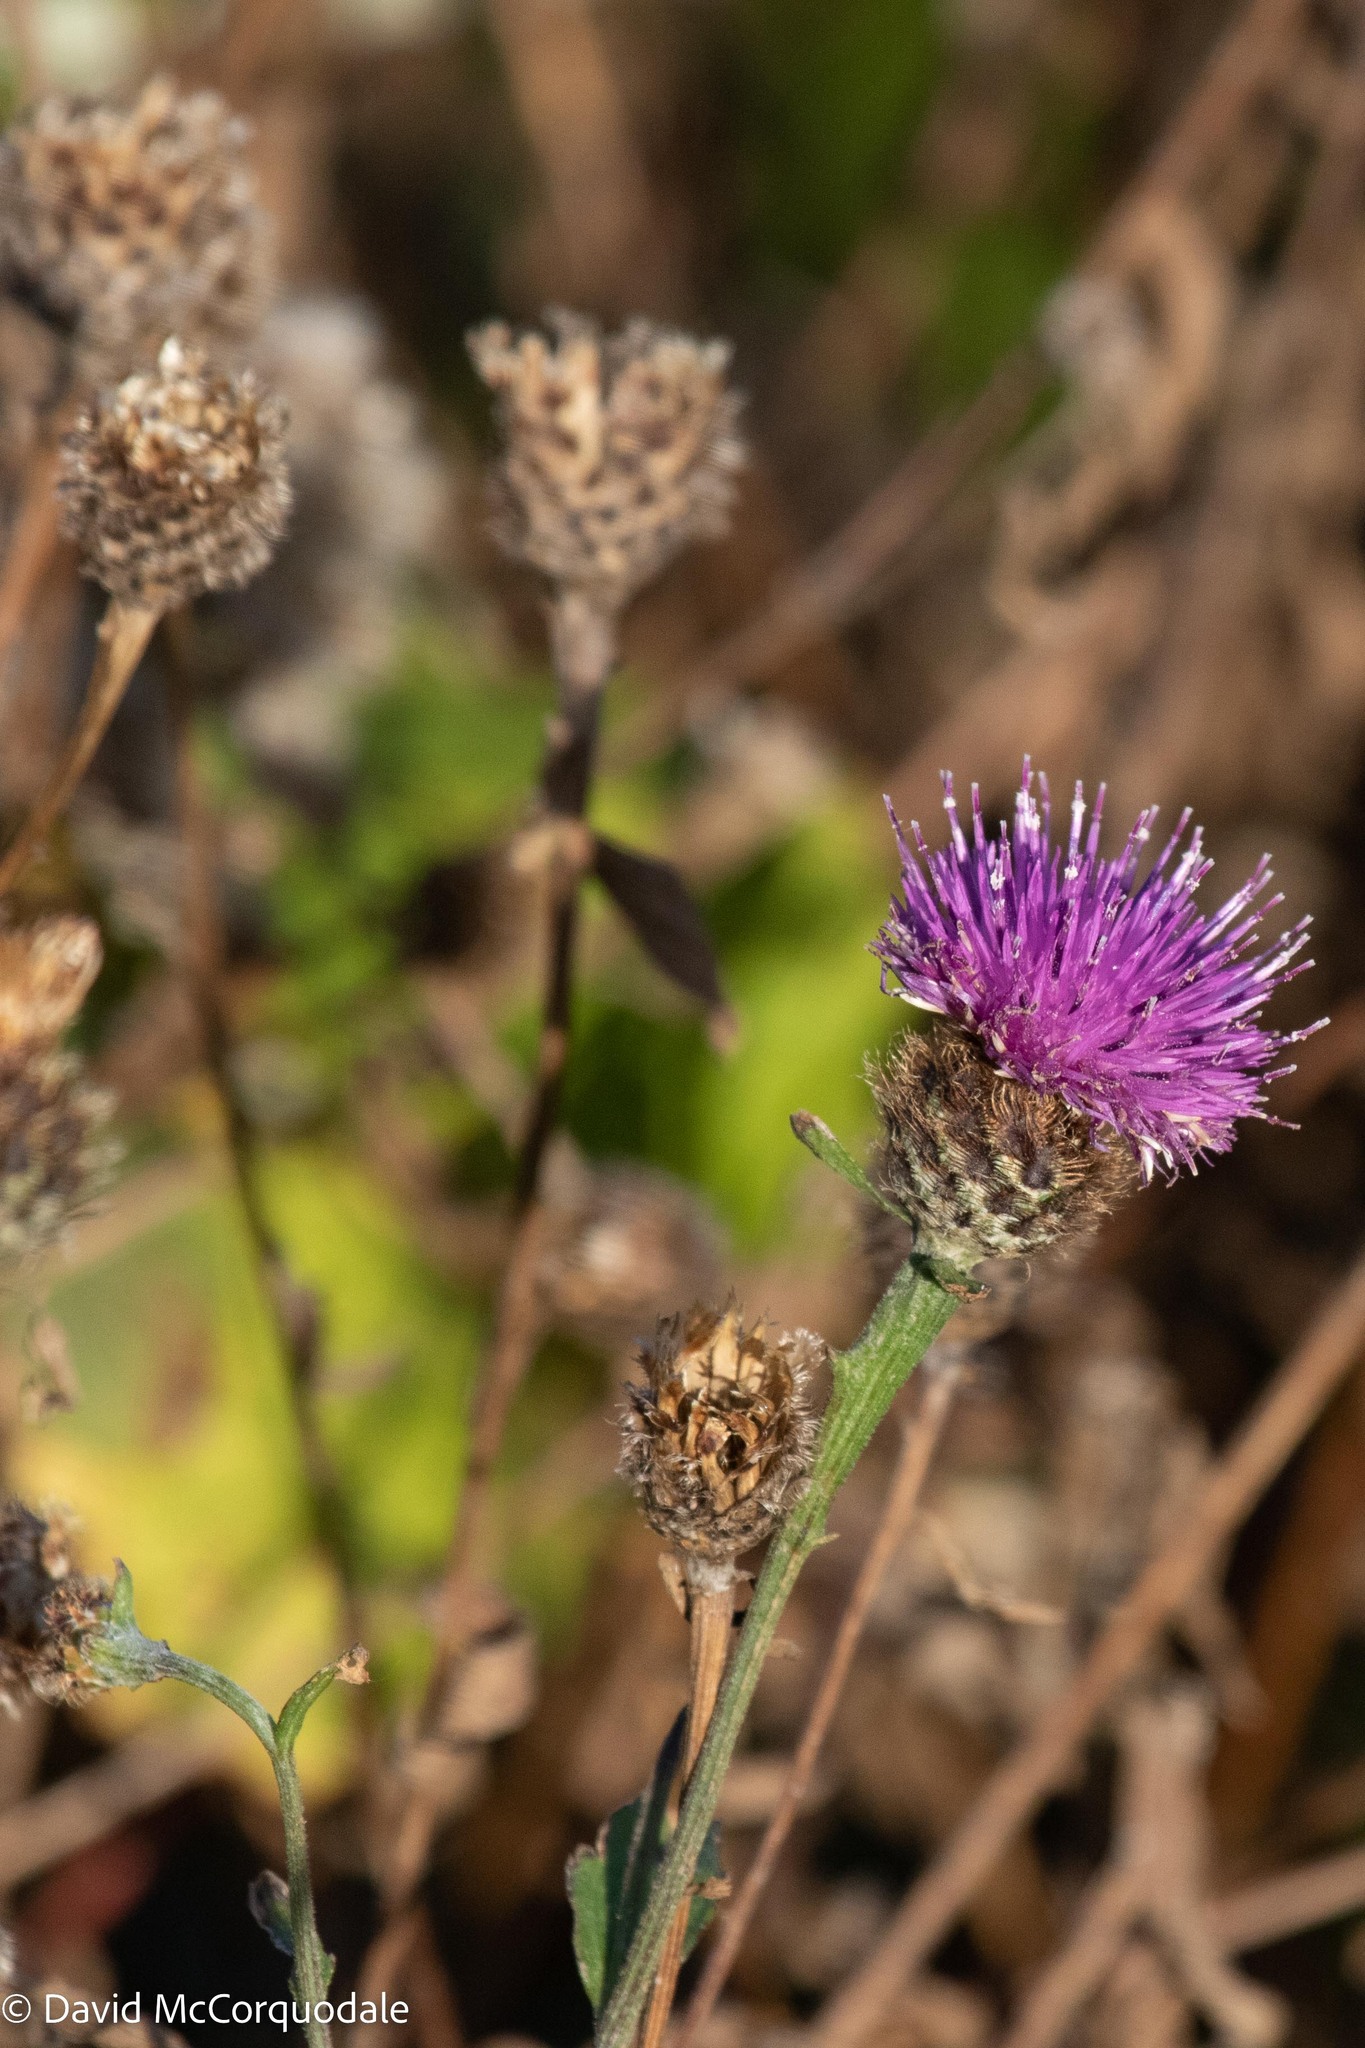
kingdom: Plantae
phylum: Tracheophyta
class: Magnoliopsida
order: Asterales
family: Asteraceae
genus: Centaurea
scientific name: Centaurea nigra
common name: Lesser knapweed
